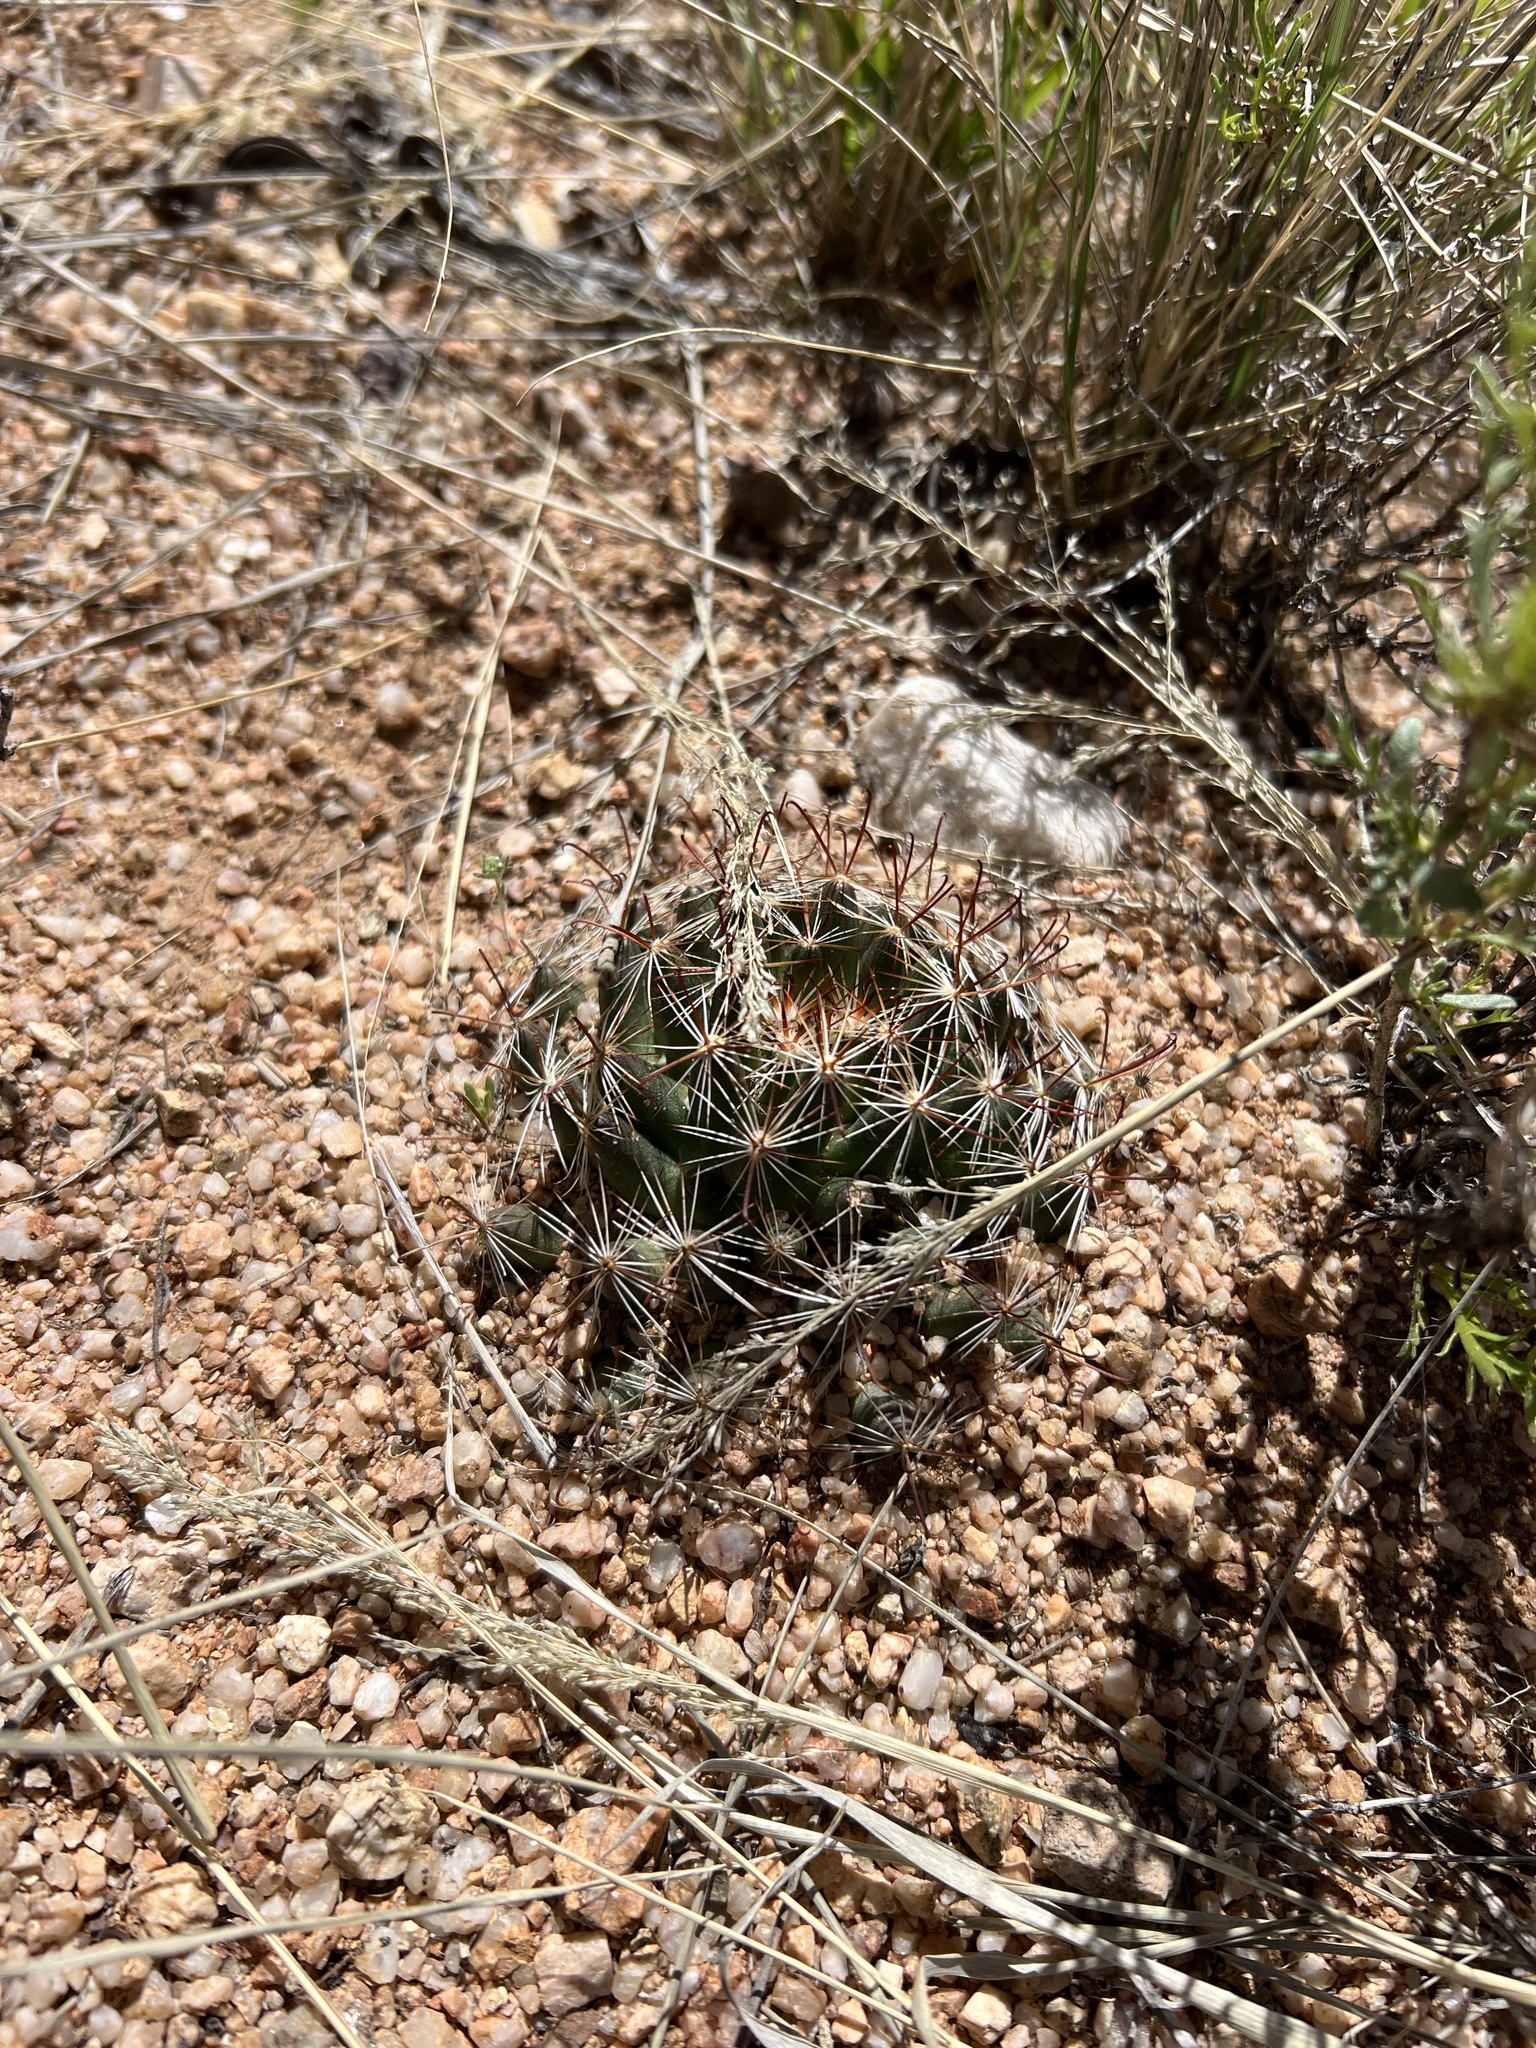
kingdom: Plantae
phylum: Tracheophyta
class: Magnoliopsida
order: Caryophyllales
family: Cactaceae
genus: Cochemiea
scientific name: Cochemiea wrightii
